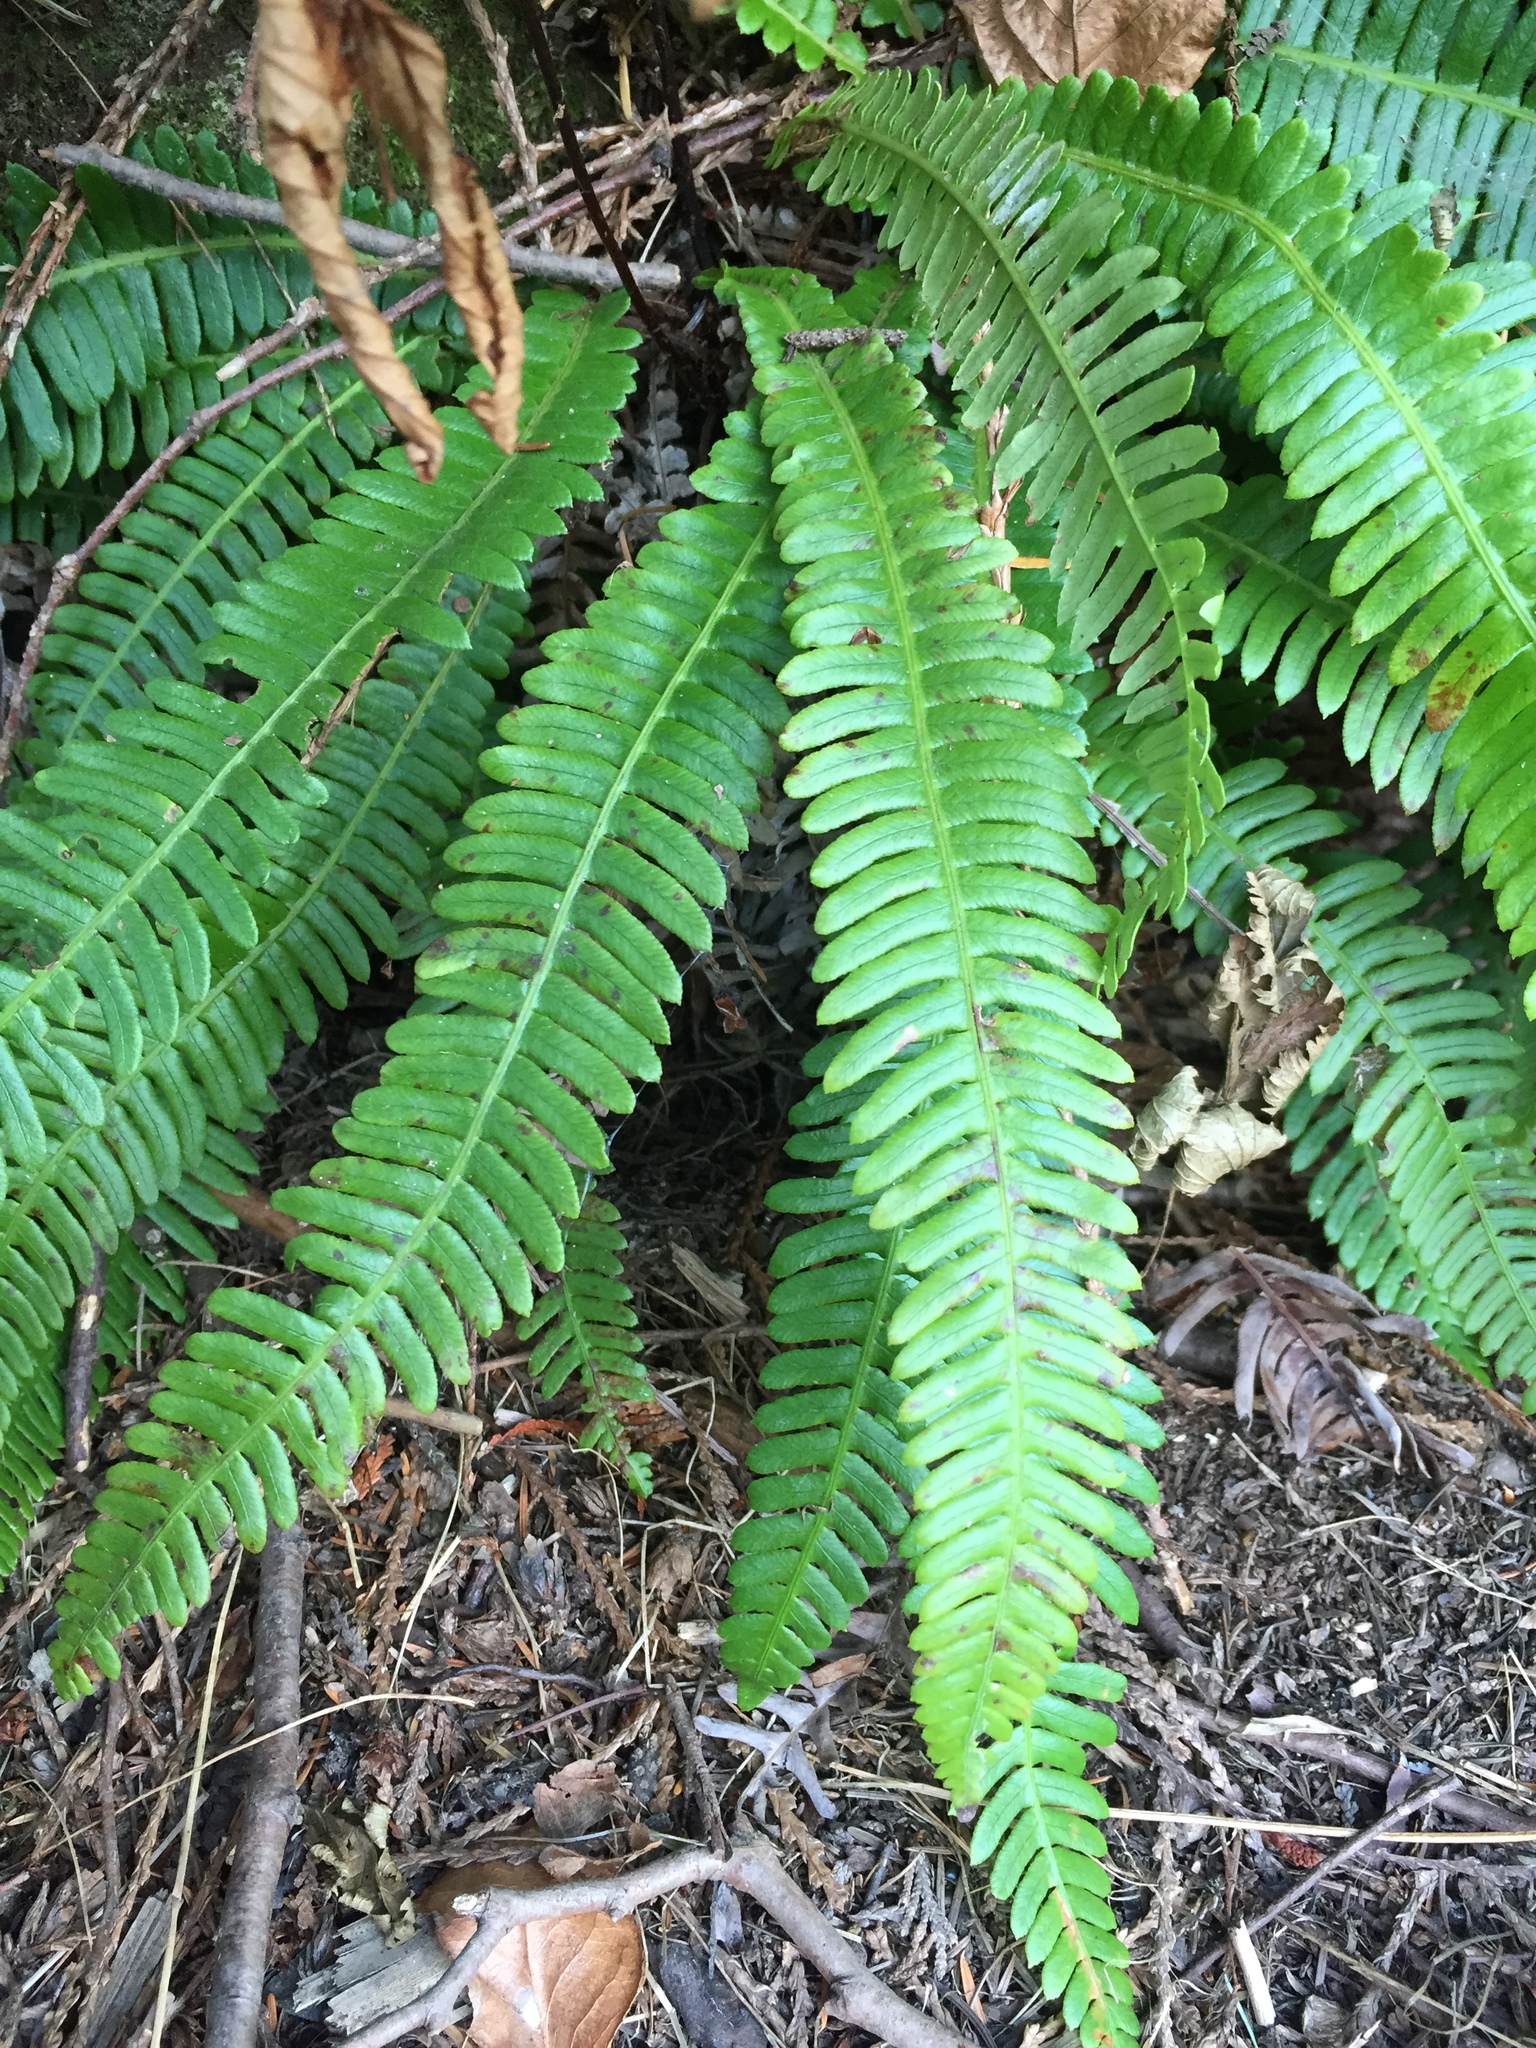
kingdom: Plantae
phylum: Tracheophyta
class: Polypodiopsida
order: Polypodiales
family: Blechnaceae
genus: Struthiopteris
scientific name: Struthiopteris spicant
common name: Deer fern
